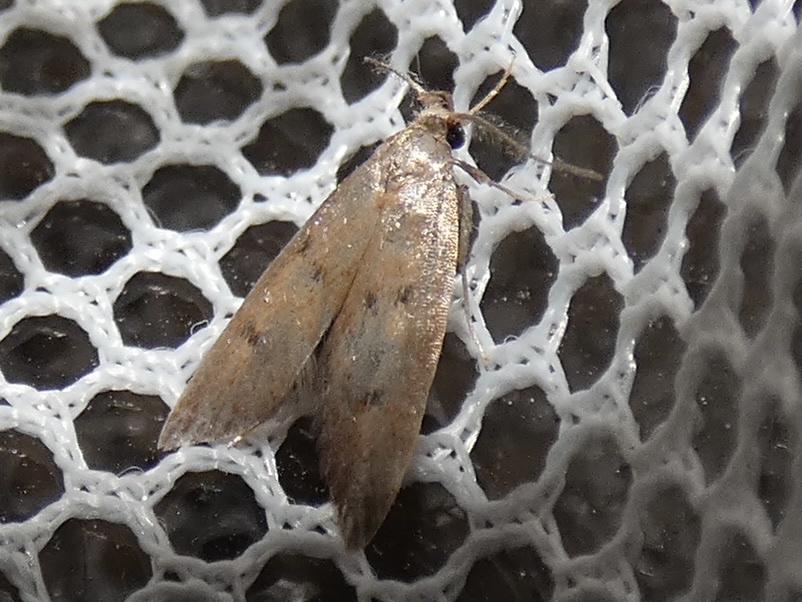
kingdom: Animalia
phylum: Arthropoda
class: Insecta
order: Lepidoptera
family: Oecophoridae
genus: Tachystola
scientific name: Tachystola acroxantha
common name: Ruddy streak
